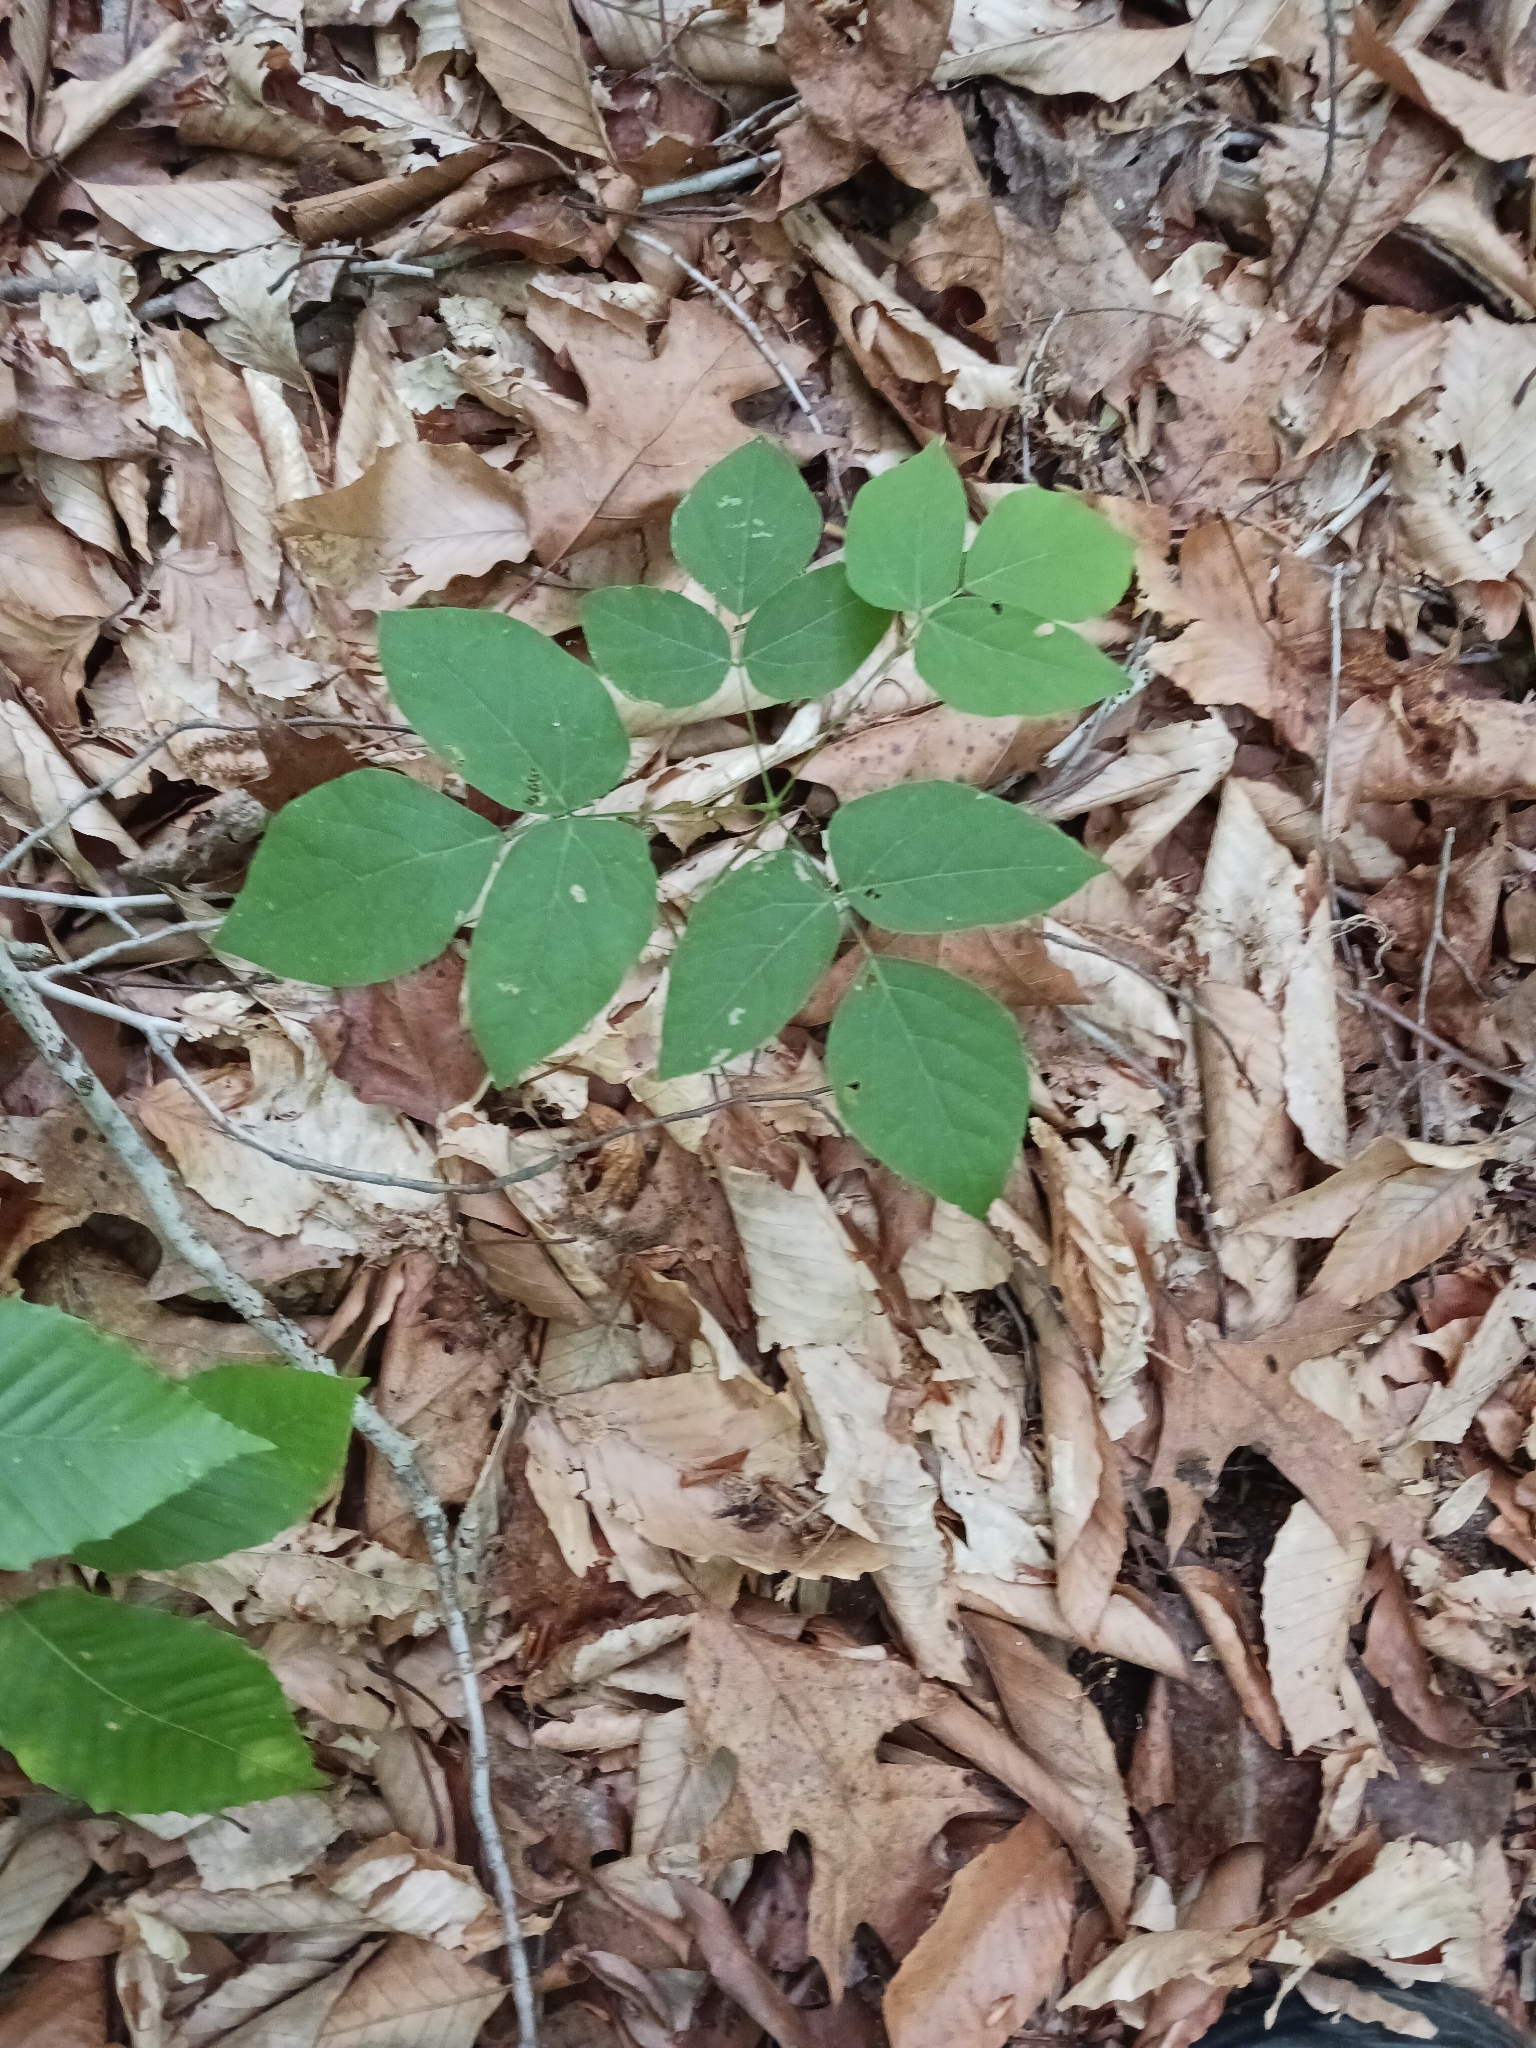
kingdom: Plantae
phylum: Tracheophyta
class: Magnoliopsida
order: Fabales
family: Fabaceae
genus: Hylodesmum
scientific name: Hylodesmum nudiflorum
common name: Bare-stemmed tick-trefoil
